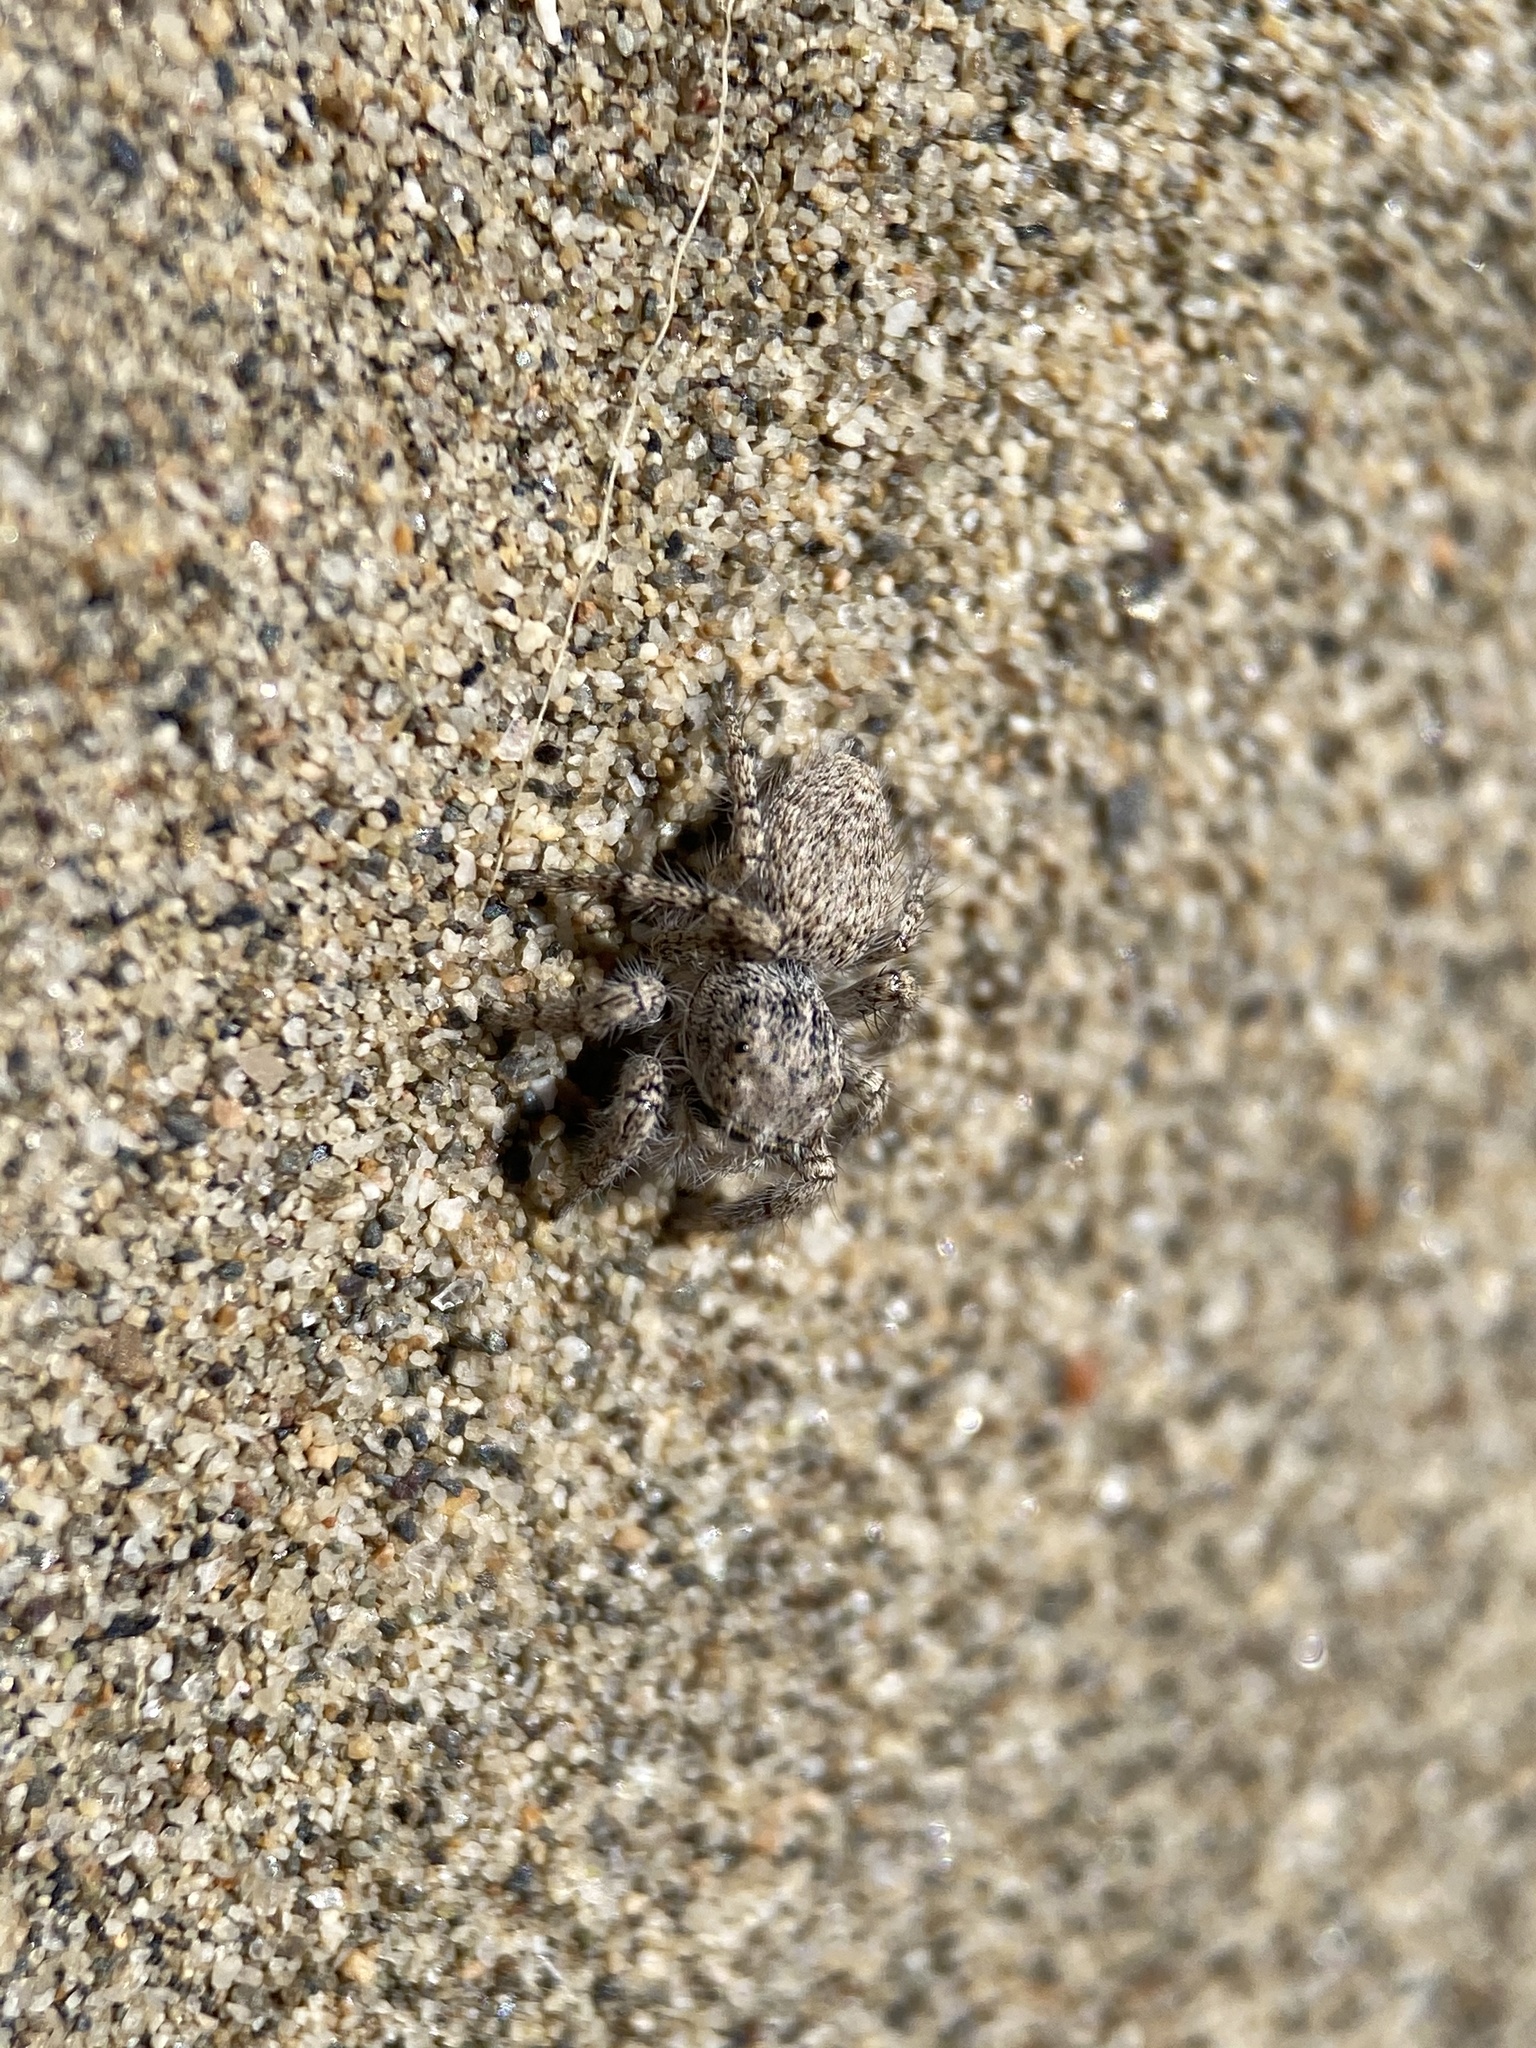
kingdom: Animalia
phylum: Arthropoda
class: Arachnida
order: Araneae
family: Salticidae
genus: Habronattus
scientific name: Habronattus amicus
